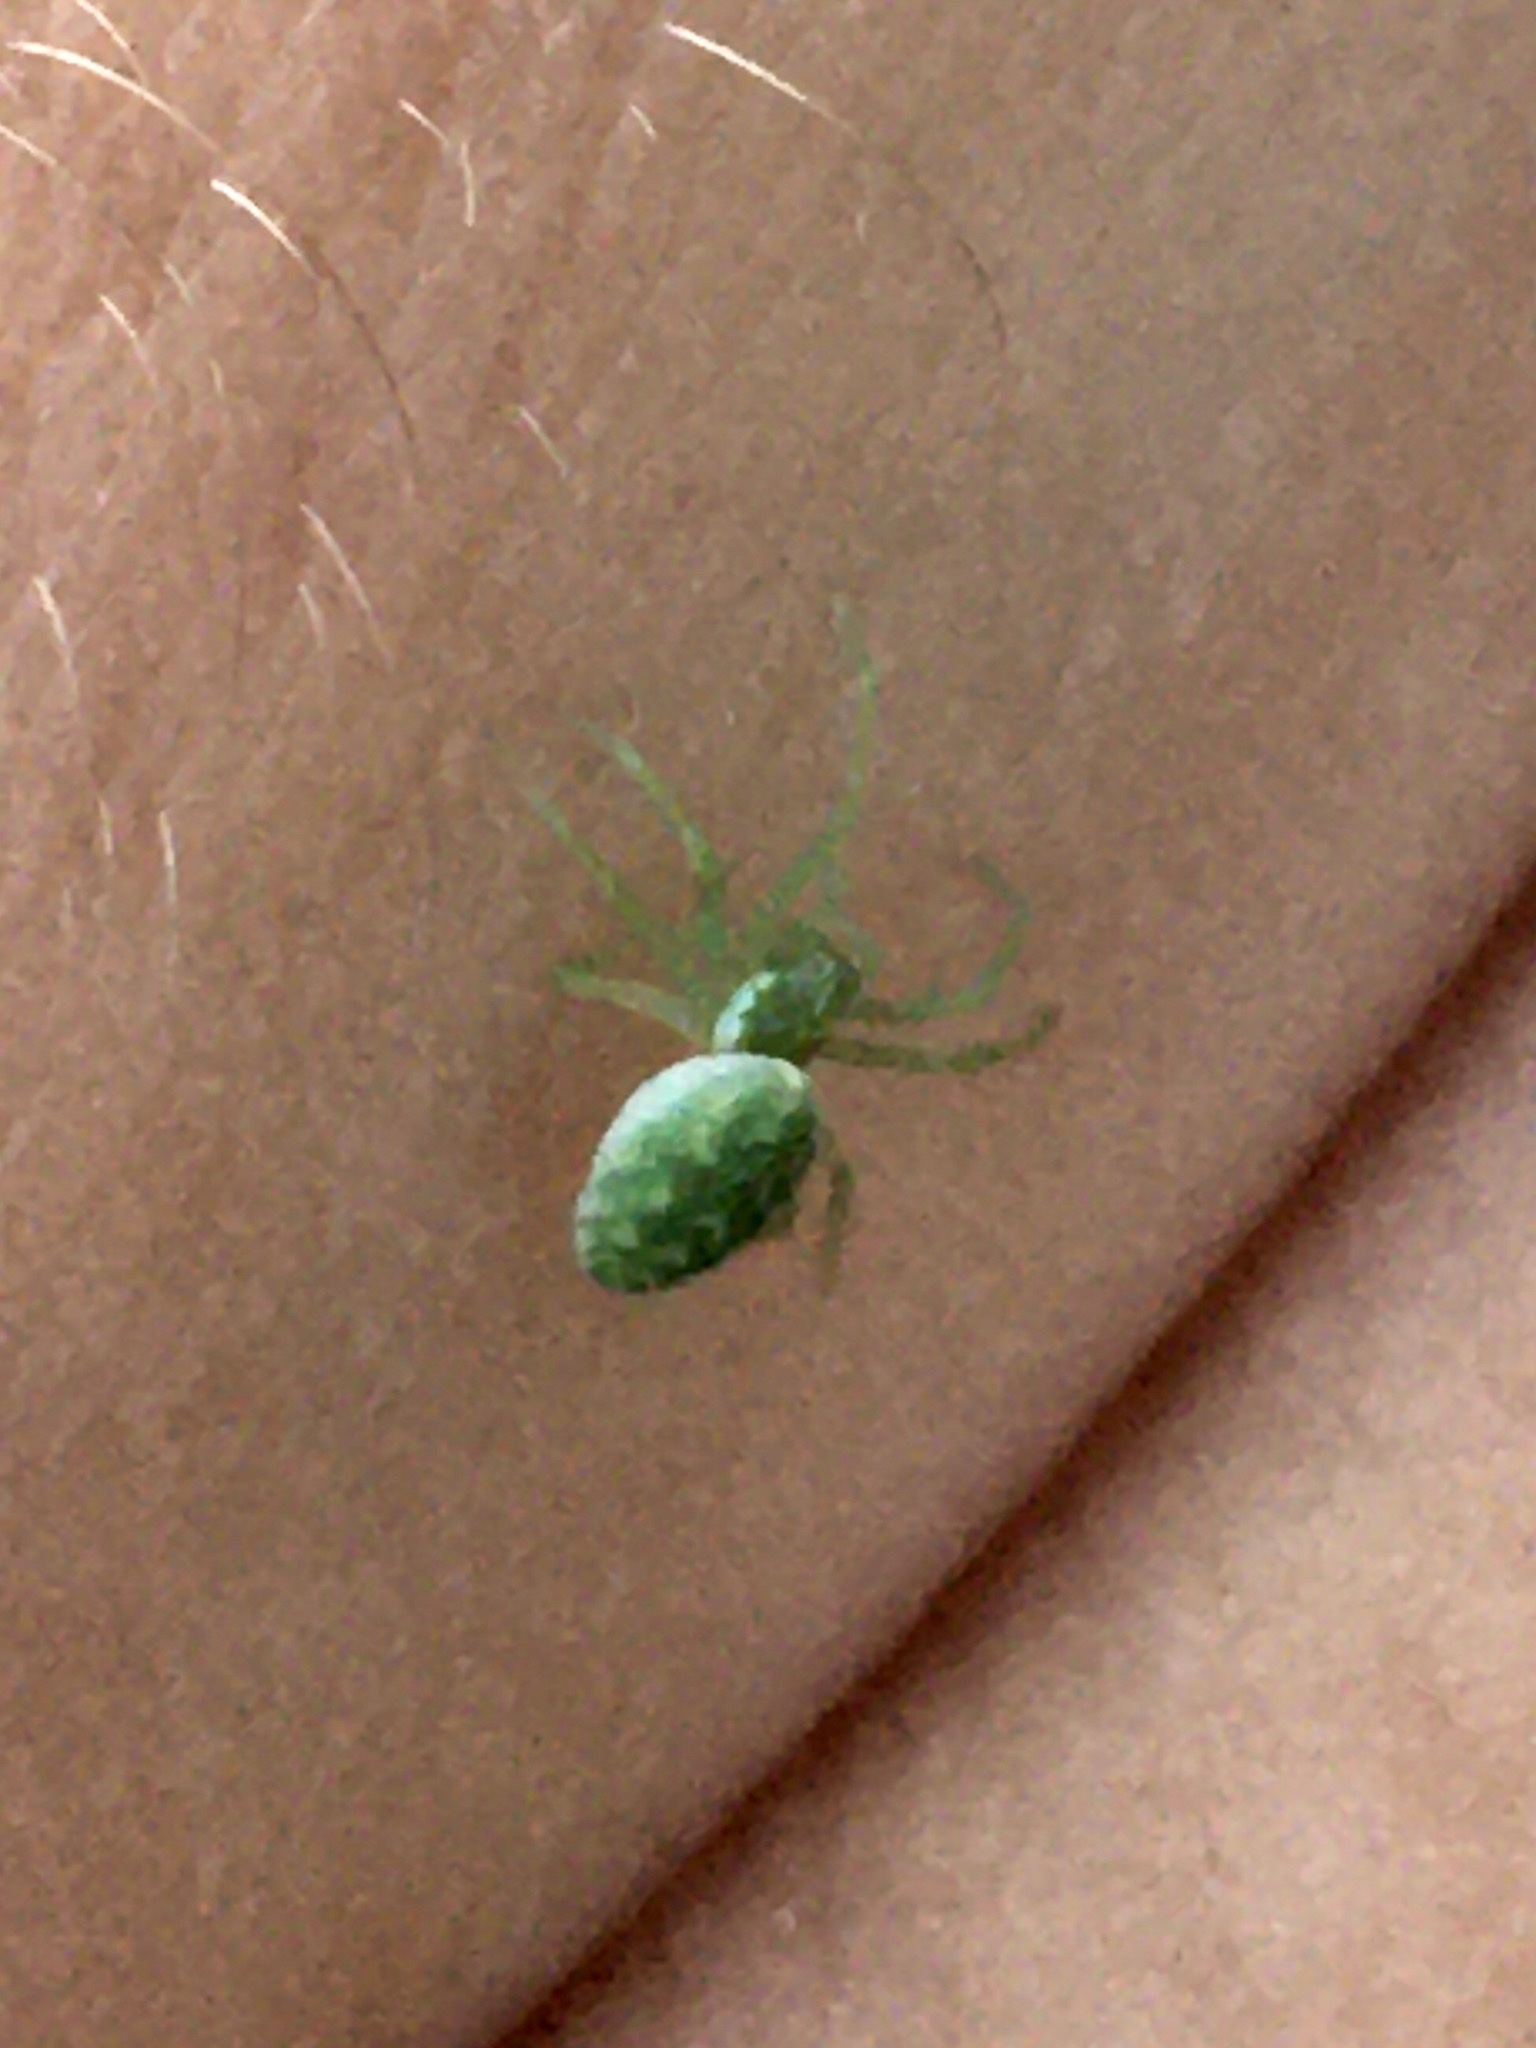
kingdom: Animalia
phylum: Arthropoda
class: Arachnida
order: Araneae
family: Dictynidae
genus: Nigma
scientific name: Nigma walckenaeri
